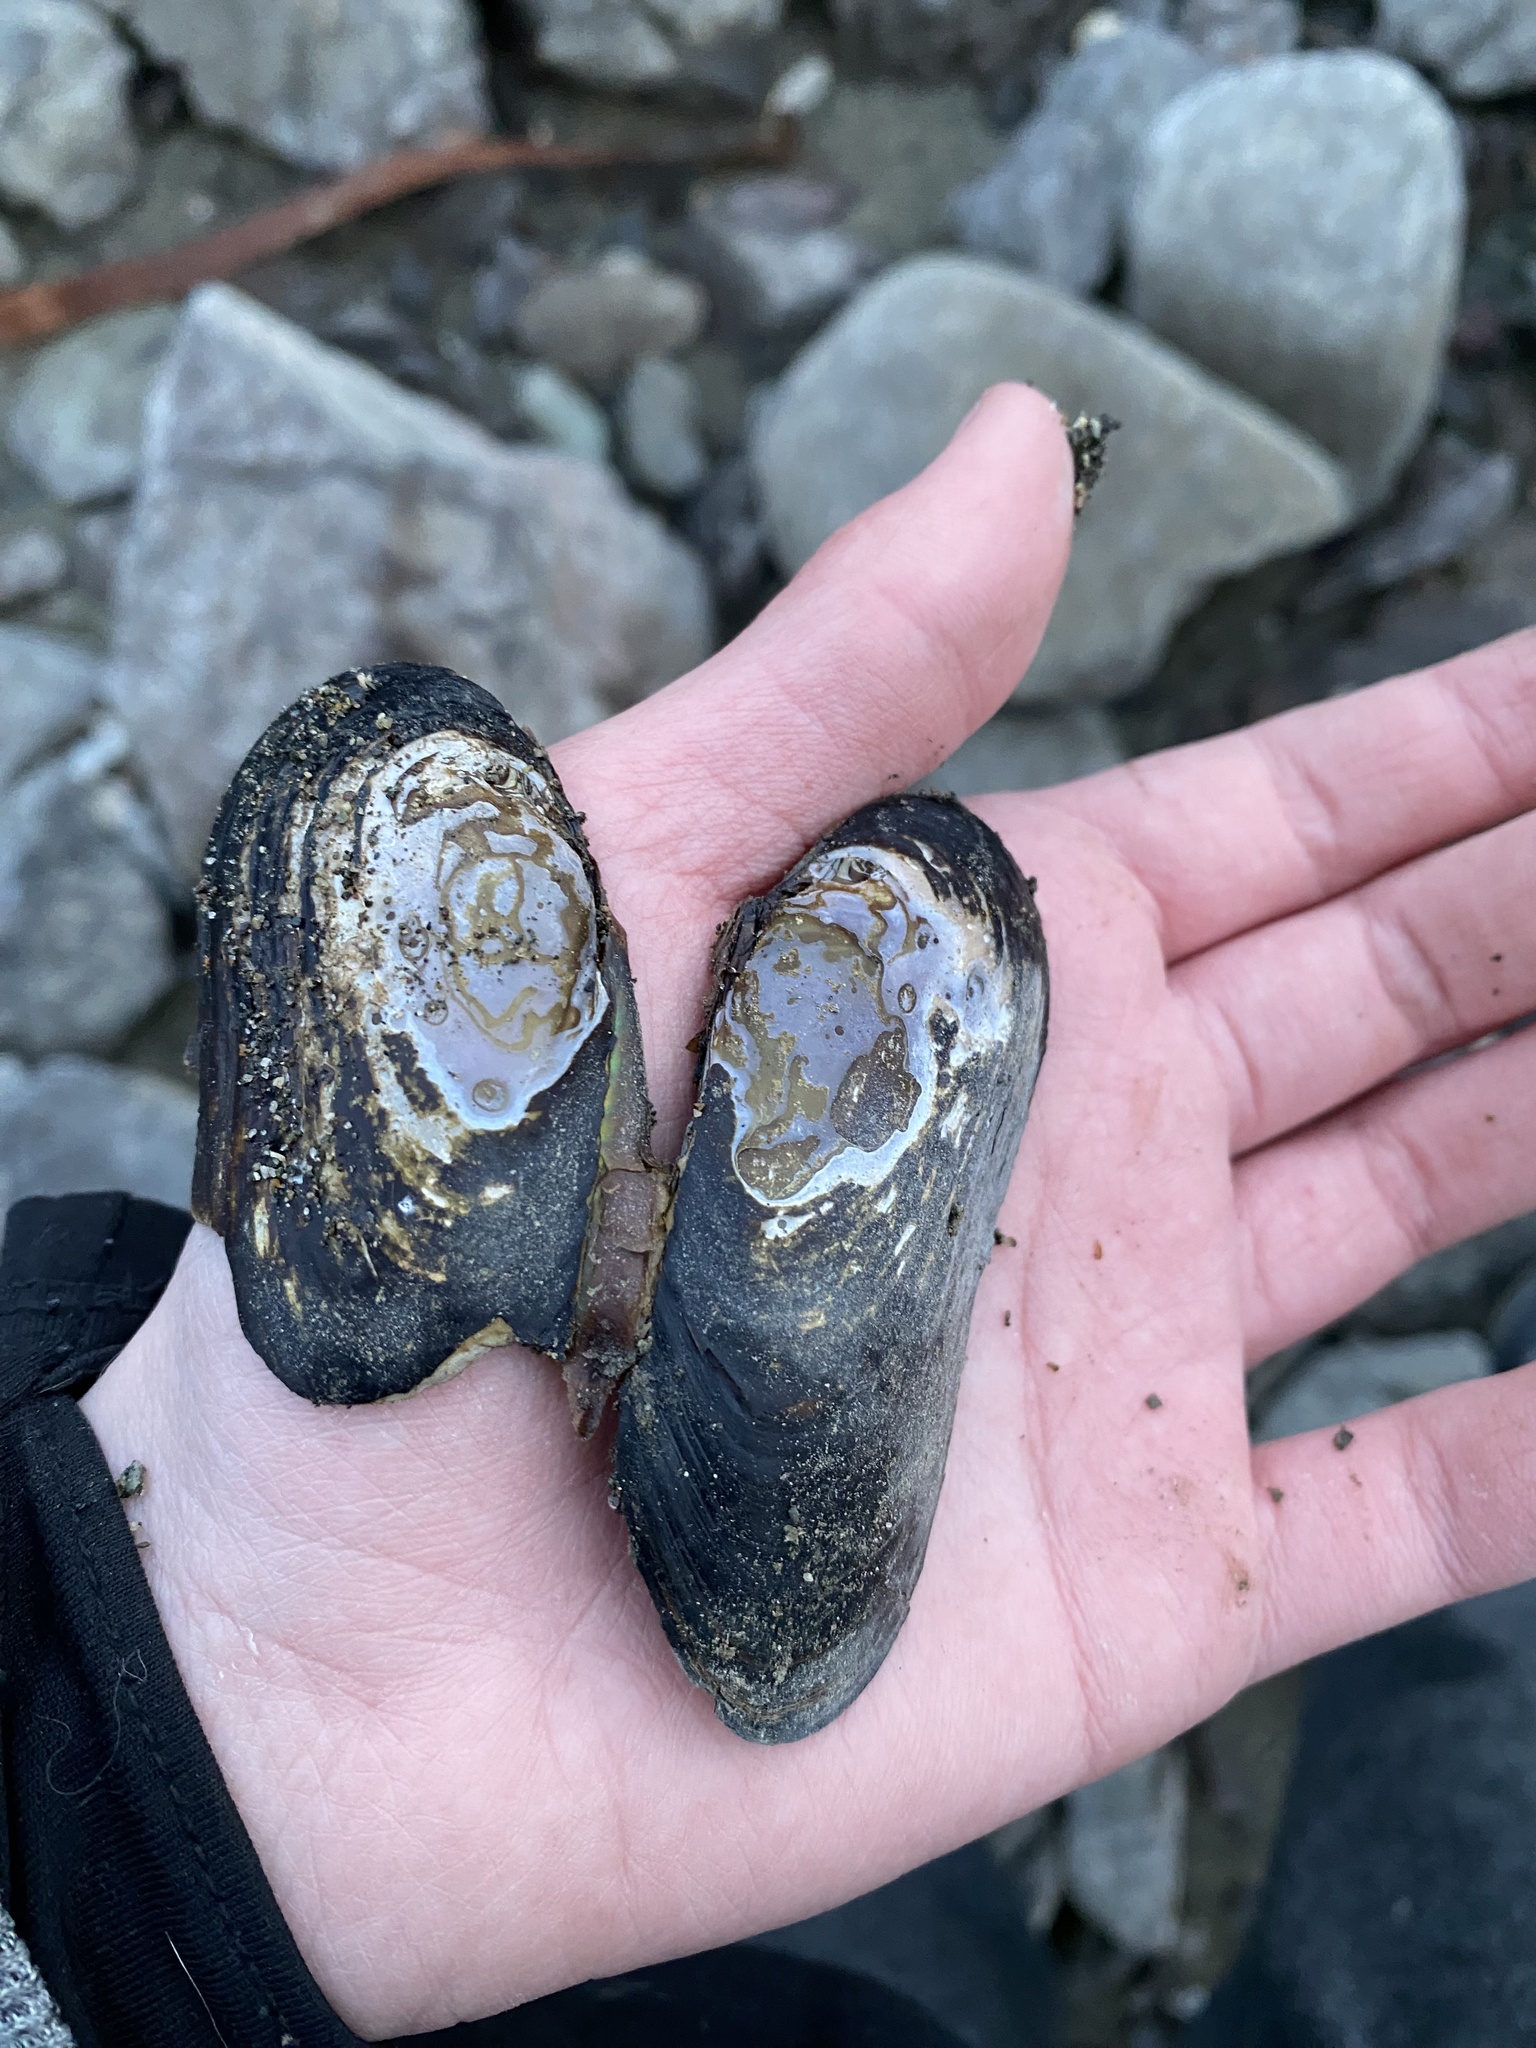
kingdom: Animalia
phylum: Mollusca
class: Bivalvia
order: Unionida
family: Margaritiferidae
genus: Margaritifera
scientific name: Margaritifera falcata
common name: Western pearlshell
